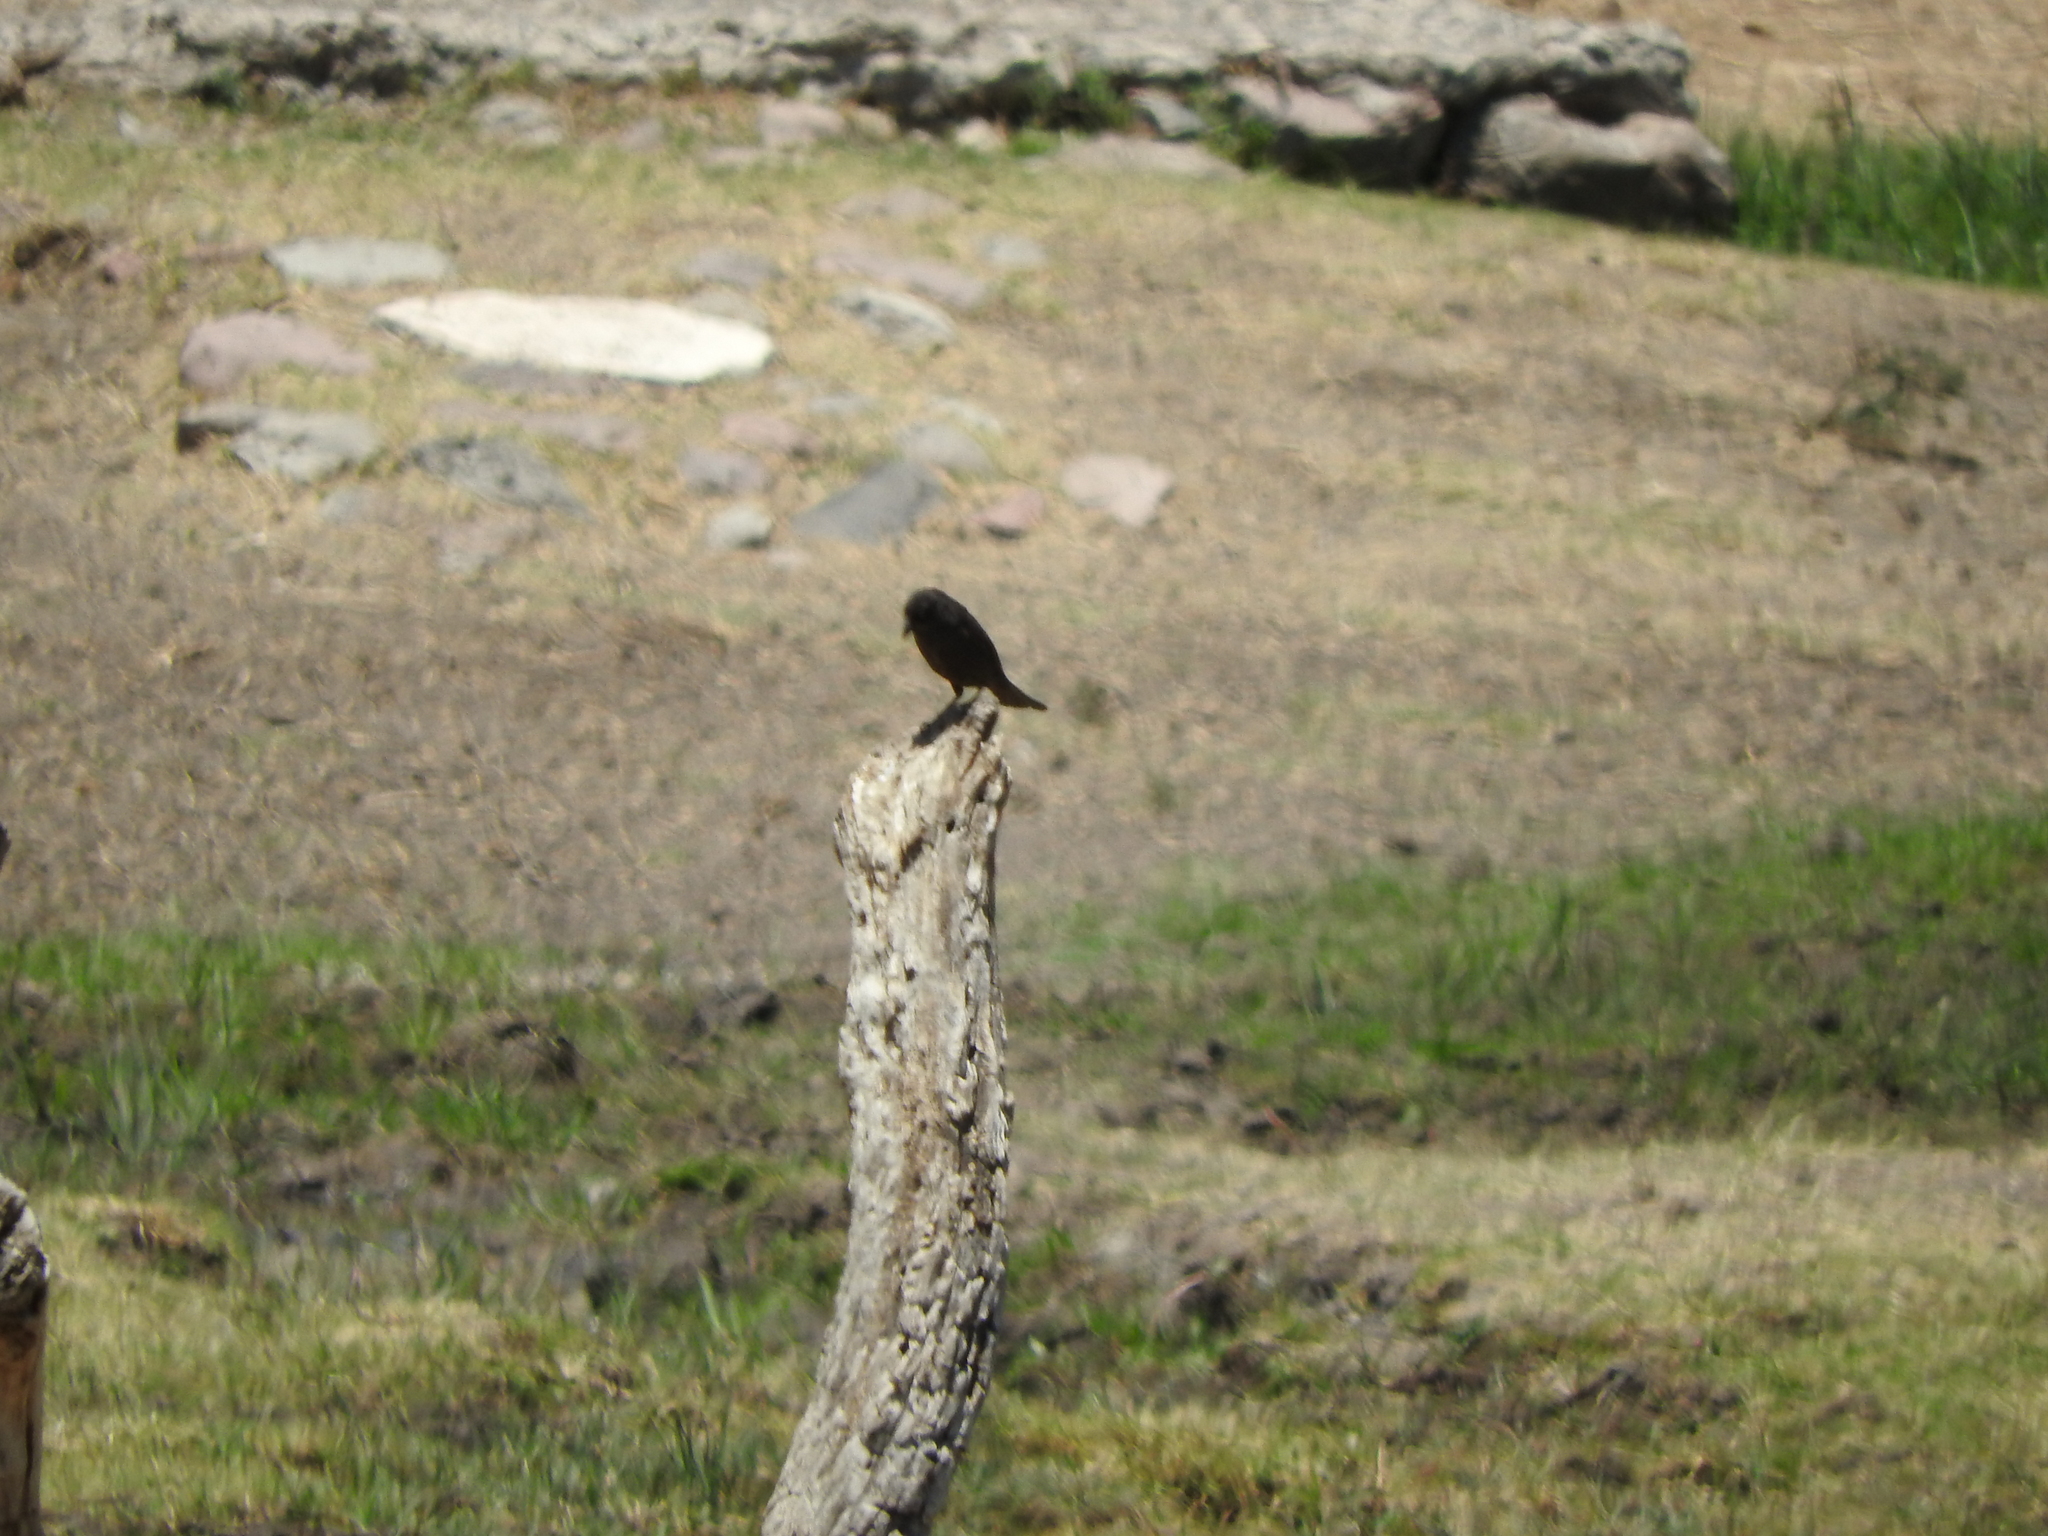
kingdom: Animalia
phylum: Chordata
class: Aves
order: Passeriformes
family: Icteridae
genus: Molothrus
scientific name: Molothrus aeneus
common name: Bronzed cowbird
